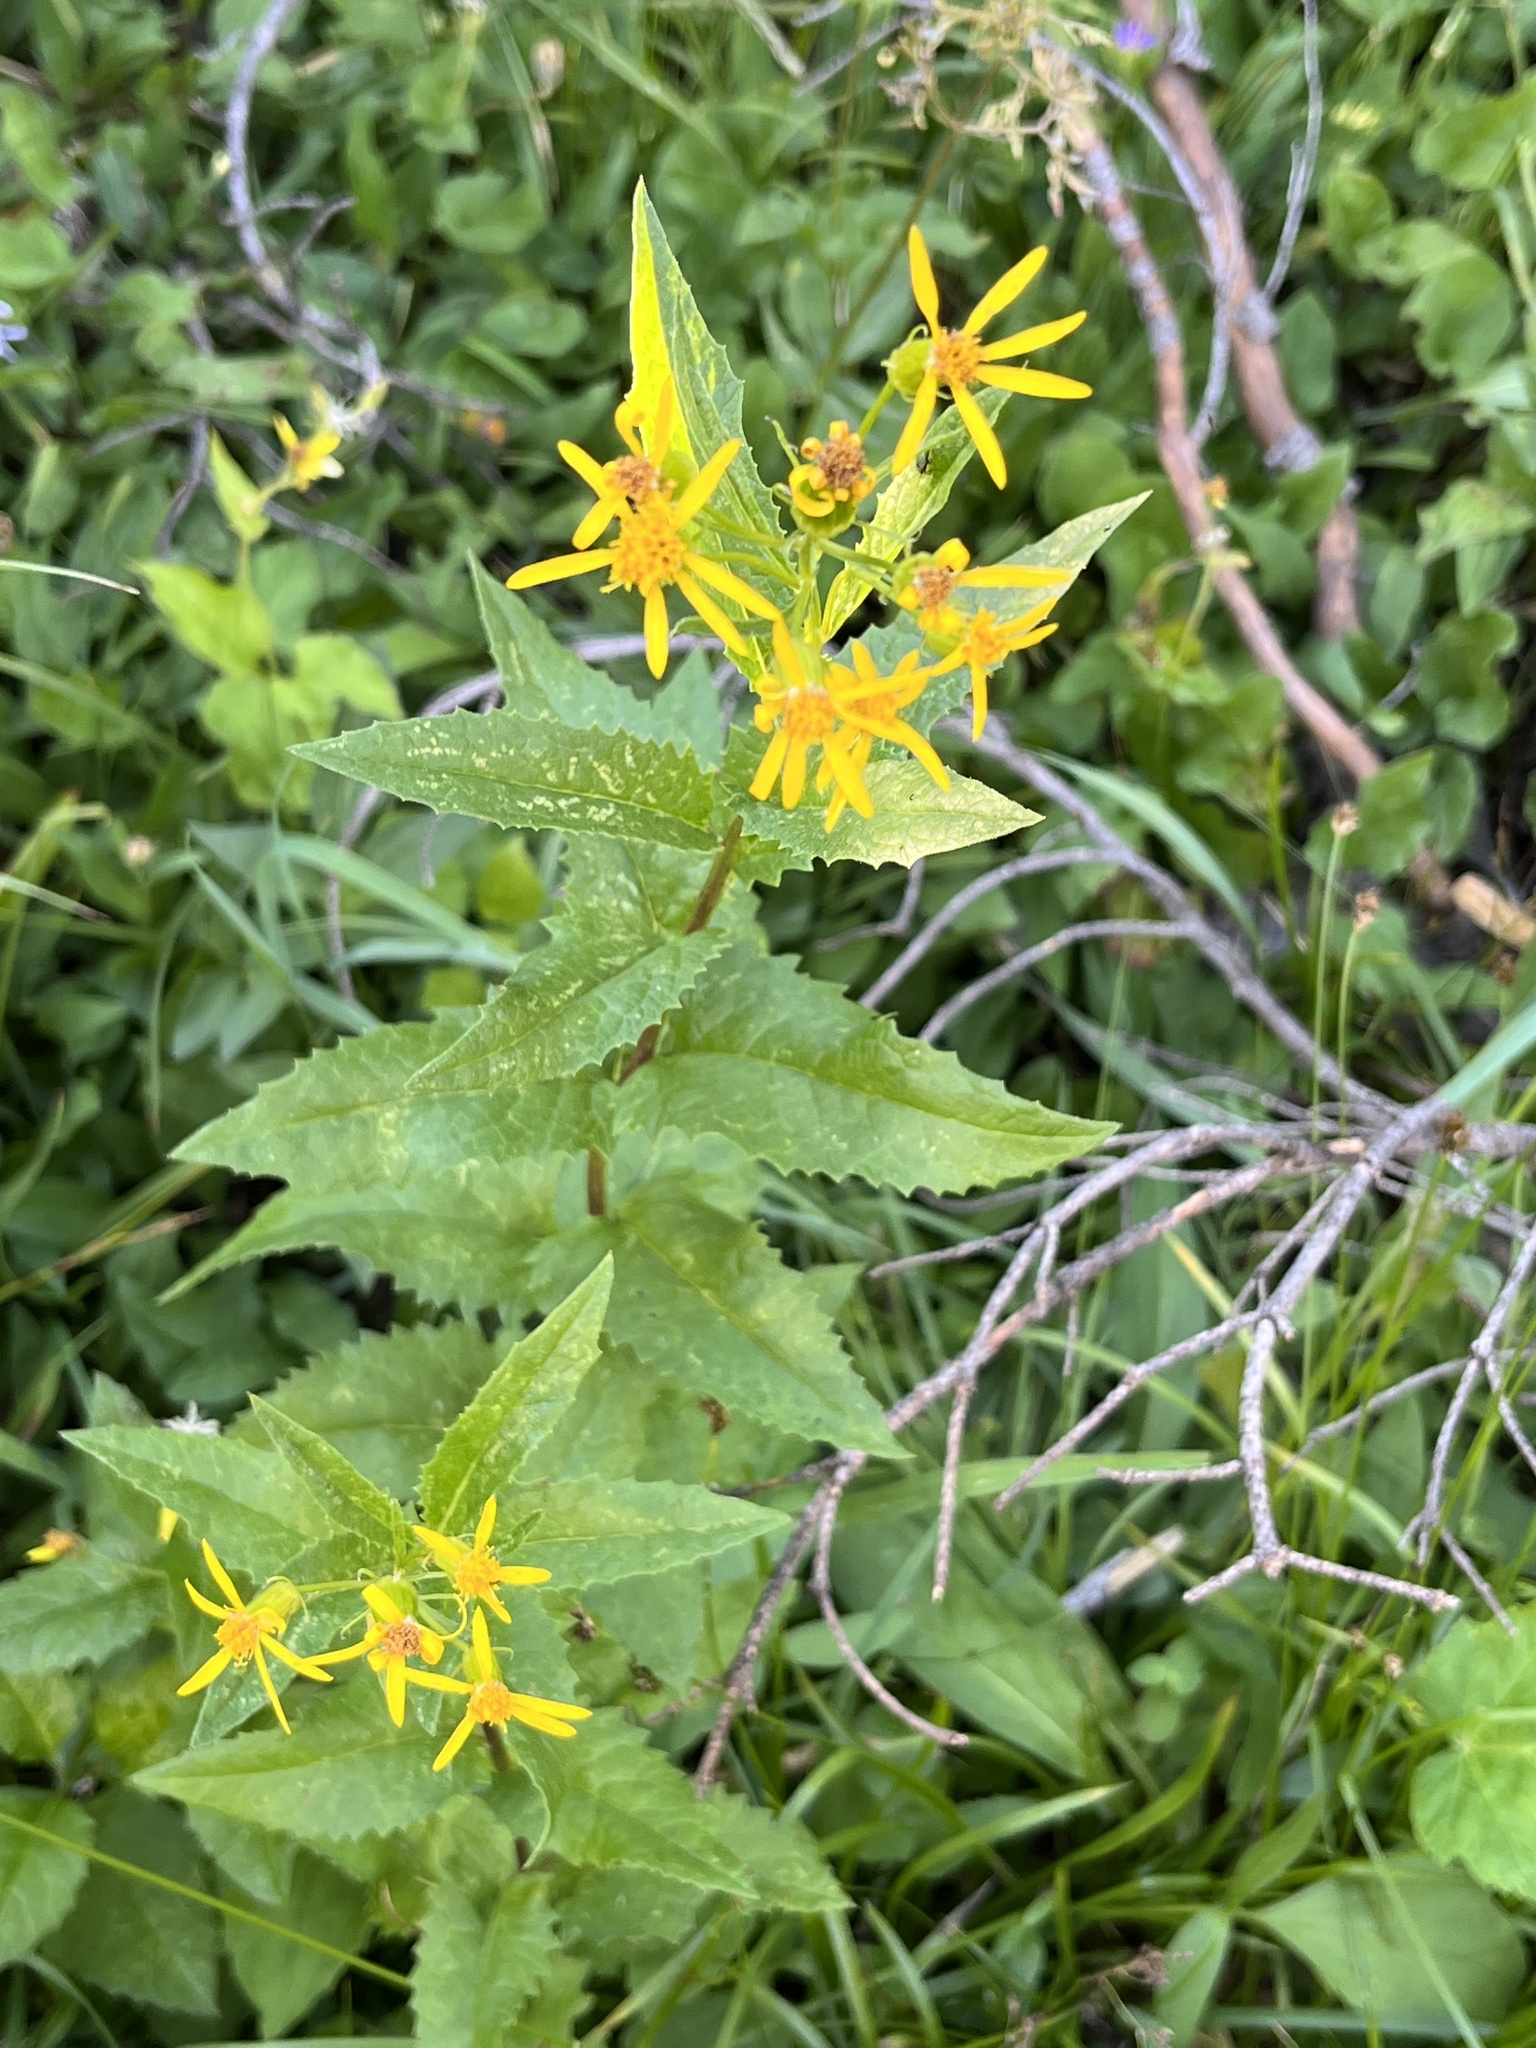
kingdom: Plantae
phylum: Tracheophyta
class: Magnoliopsida
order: Asterales
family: Asteraceae
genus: Senecio
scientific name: Senecio triangularis
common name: Arrowleaf butterweed
